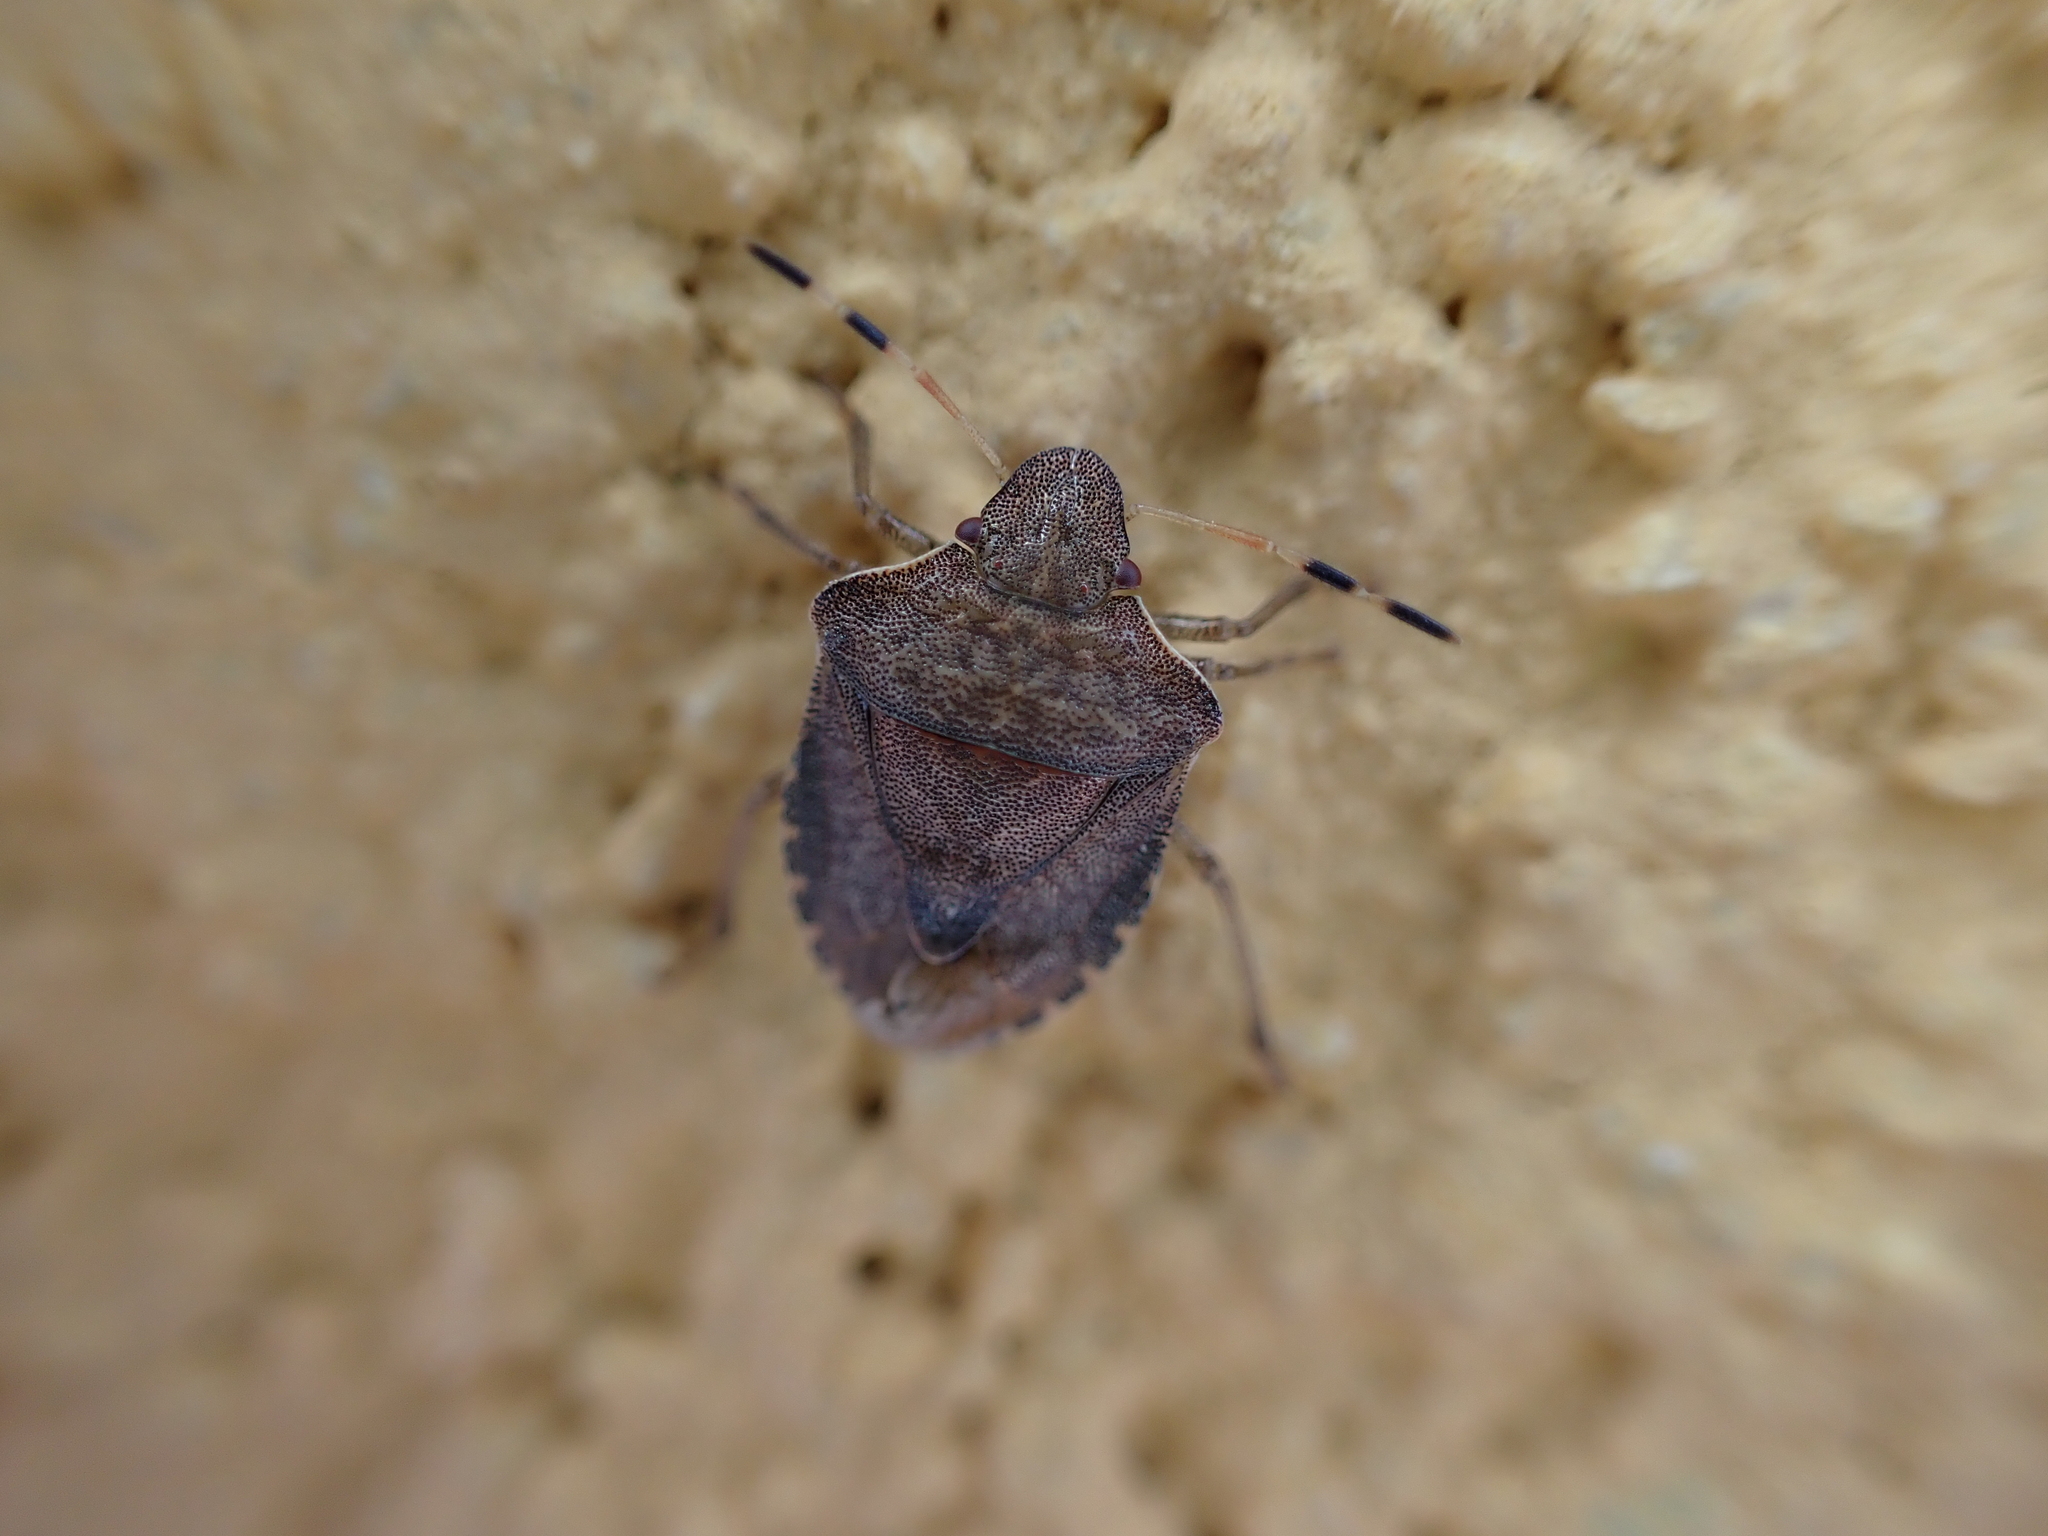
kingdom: Animalia
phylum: Arthropoda
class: Insecta
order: Hemiptera
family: Pentatomidae
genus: Holcostethus
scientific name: Holcostethus strictus
